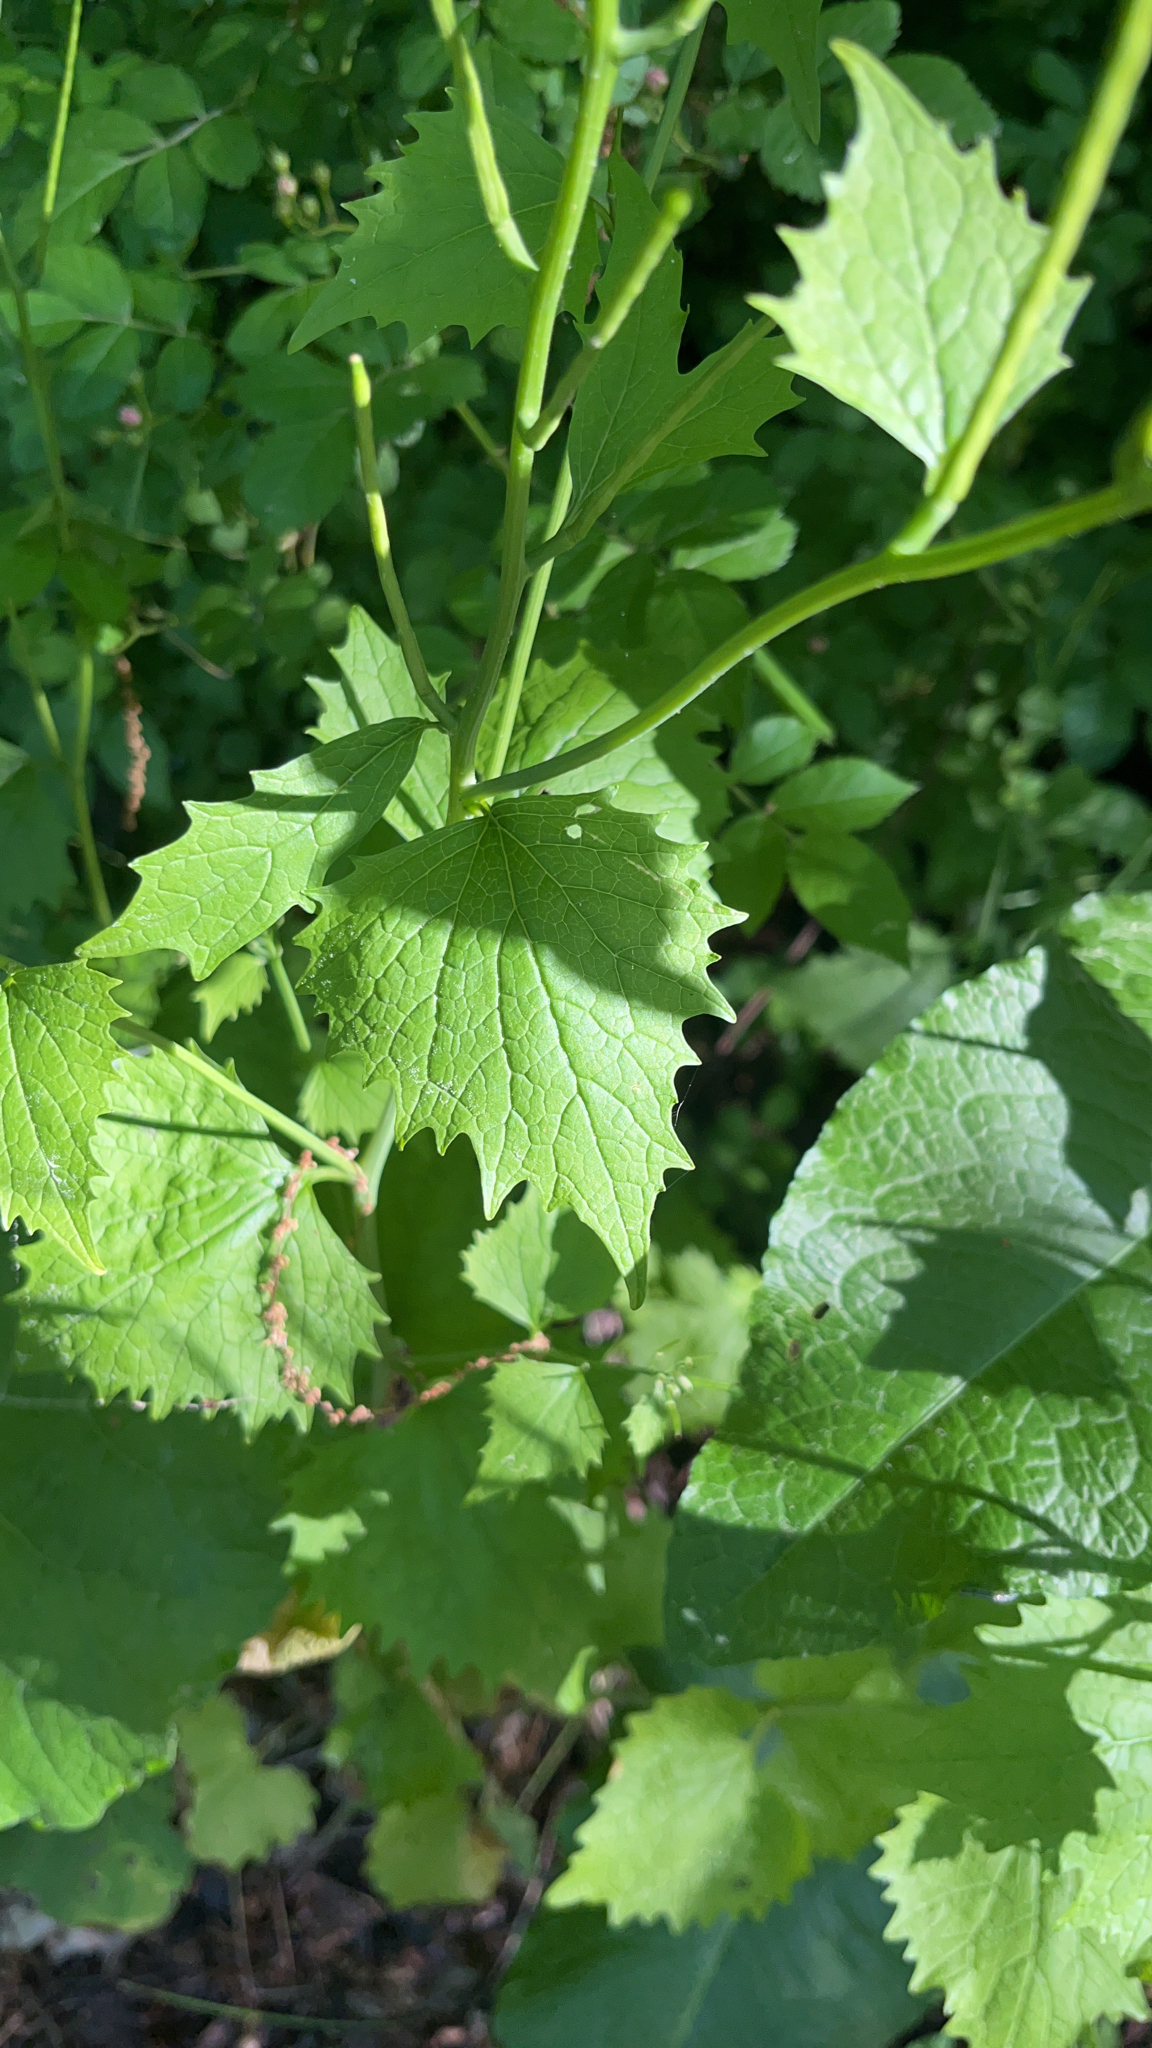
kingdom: Plantae
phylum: Tracheophyta
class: Magnoliopsida
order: Brassicales
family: Brassicaceae
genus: Alliaria
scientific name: Alliaria petiolata
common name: Garlic mustard
